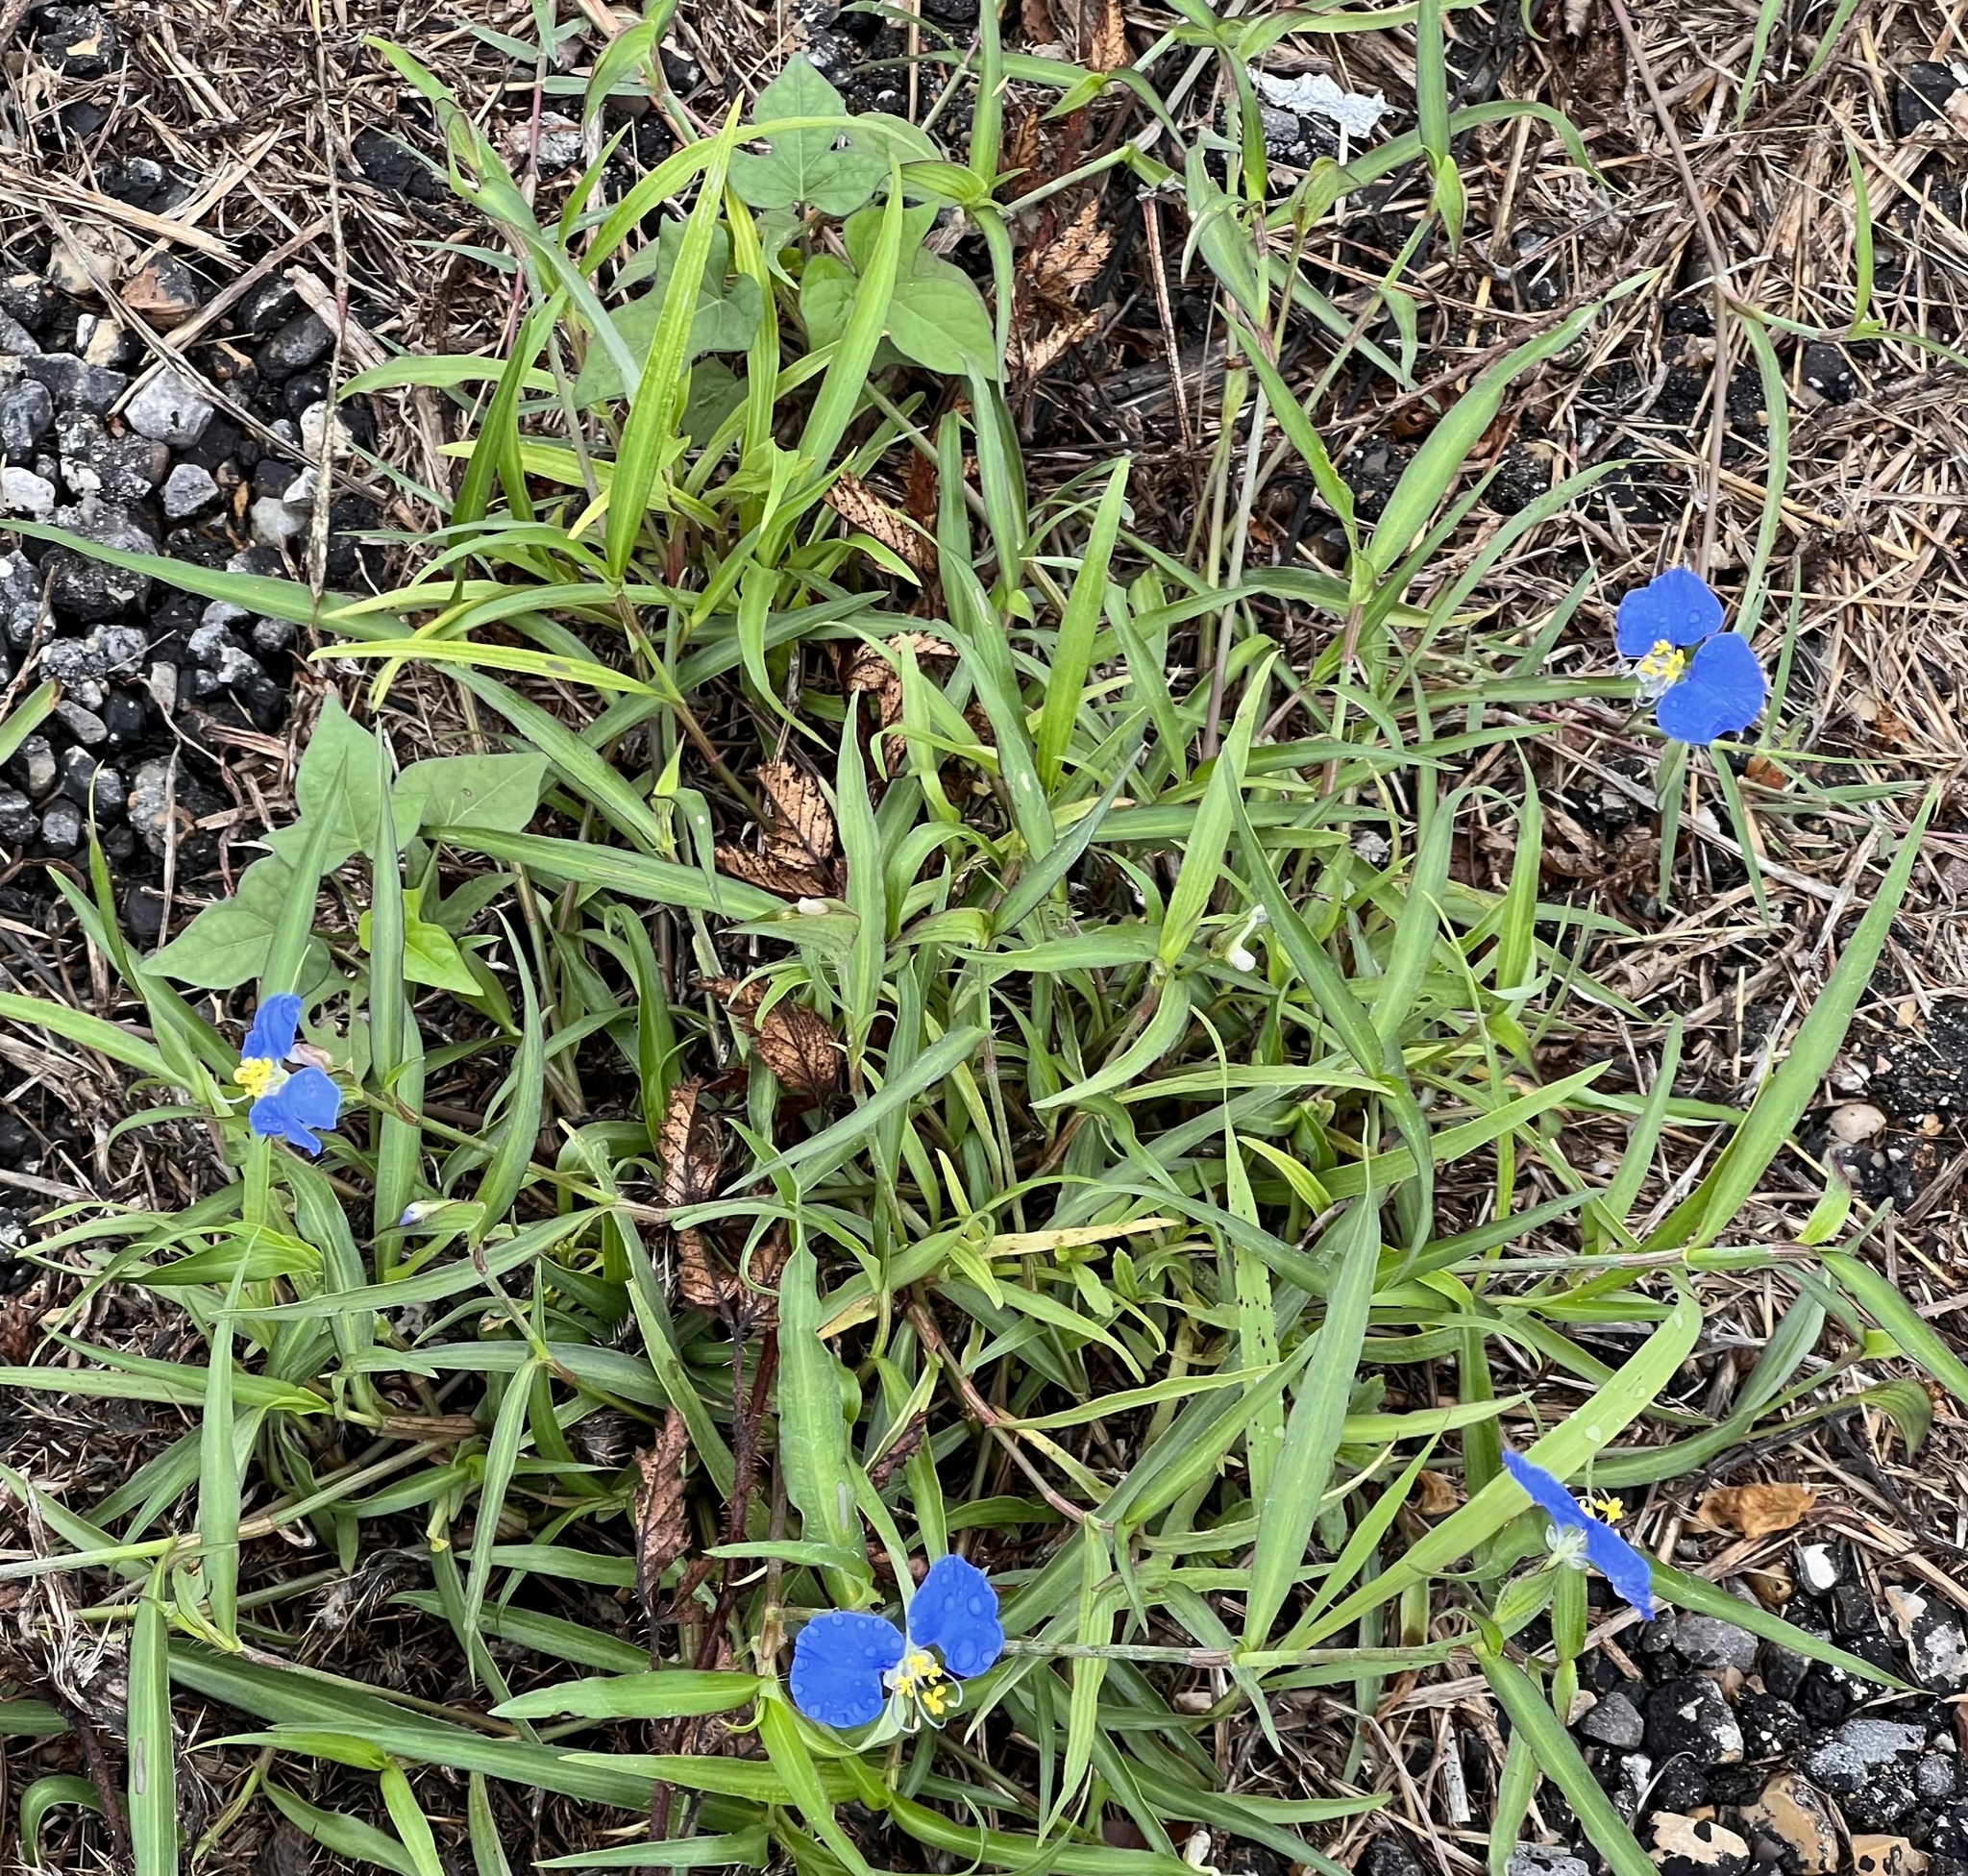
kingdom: Plantae
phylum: Tracheophyta
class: Liliopsida
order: Commelinales
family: Commelinaceae
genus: Commelina
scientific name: Commelina erecta
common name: Blousel blommetjie
